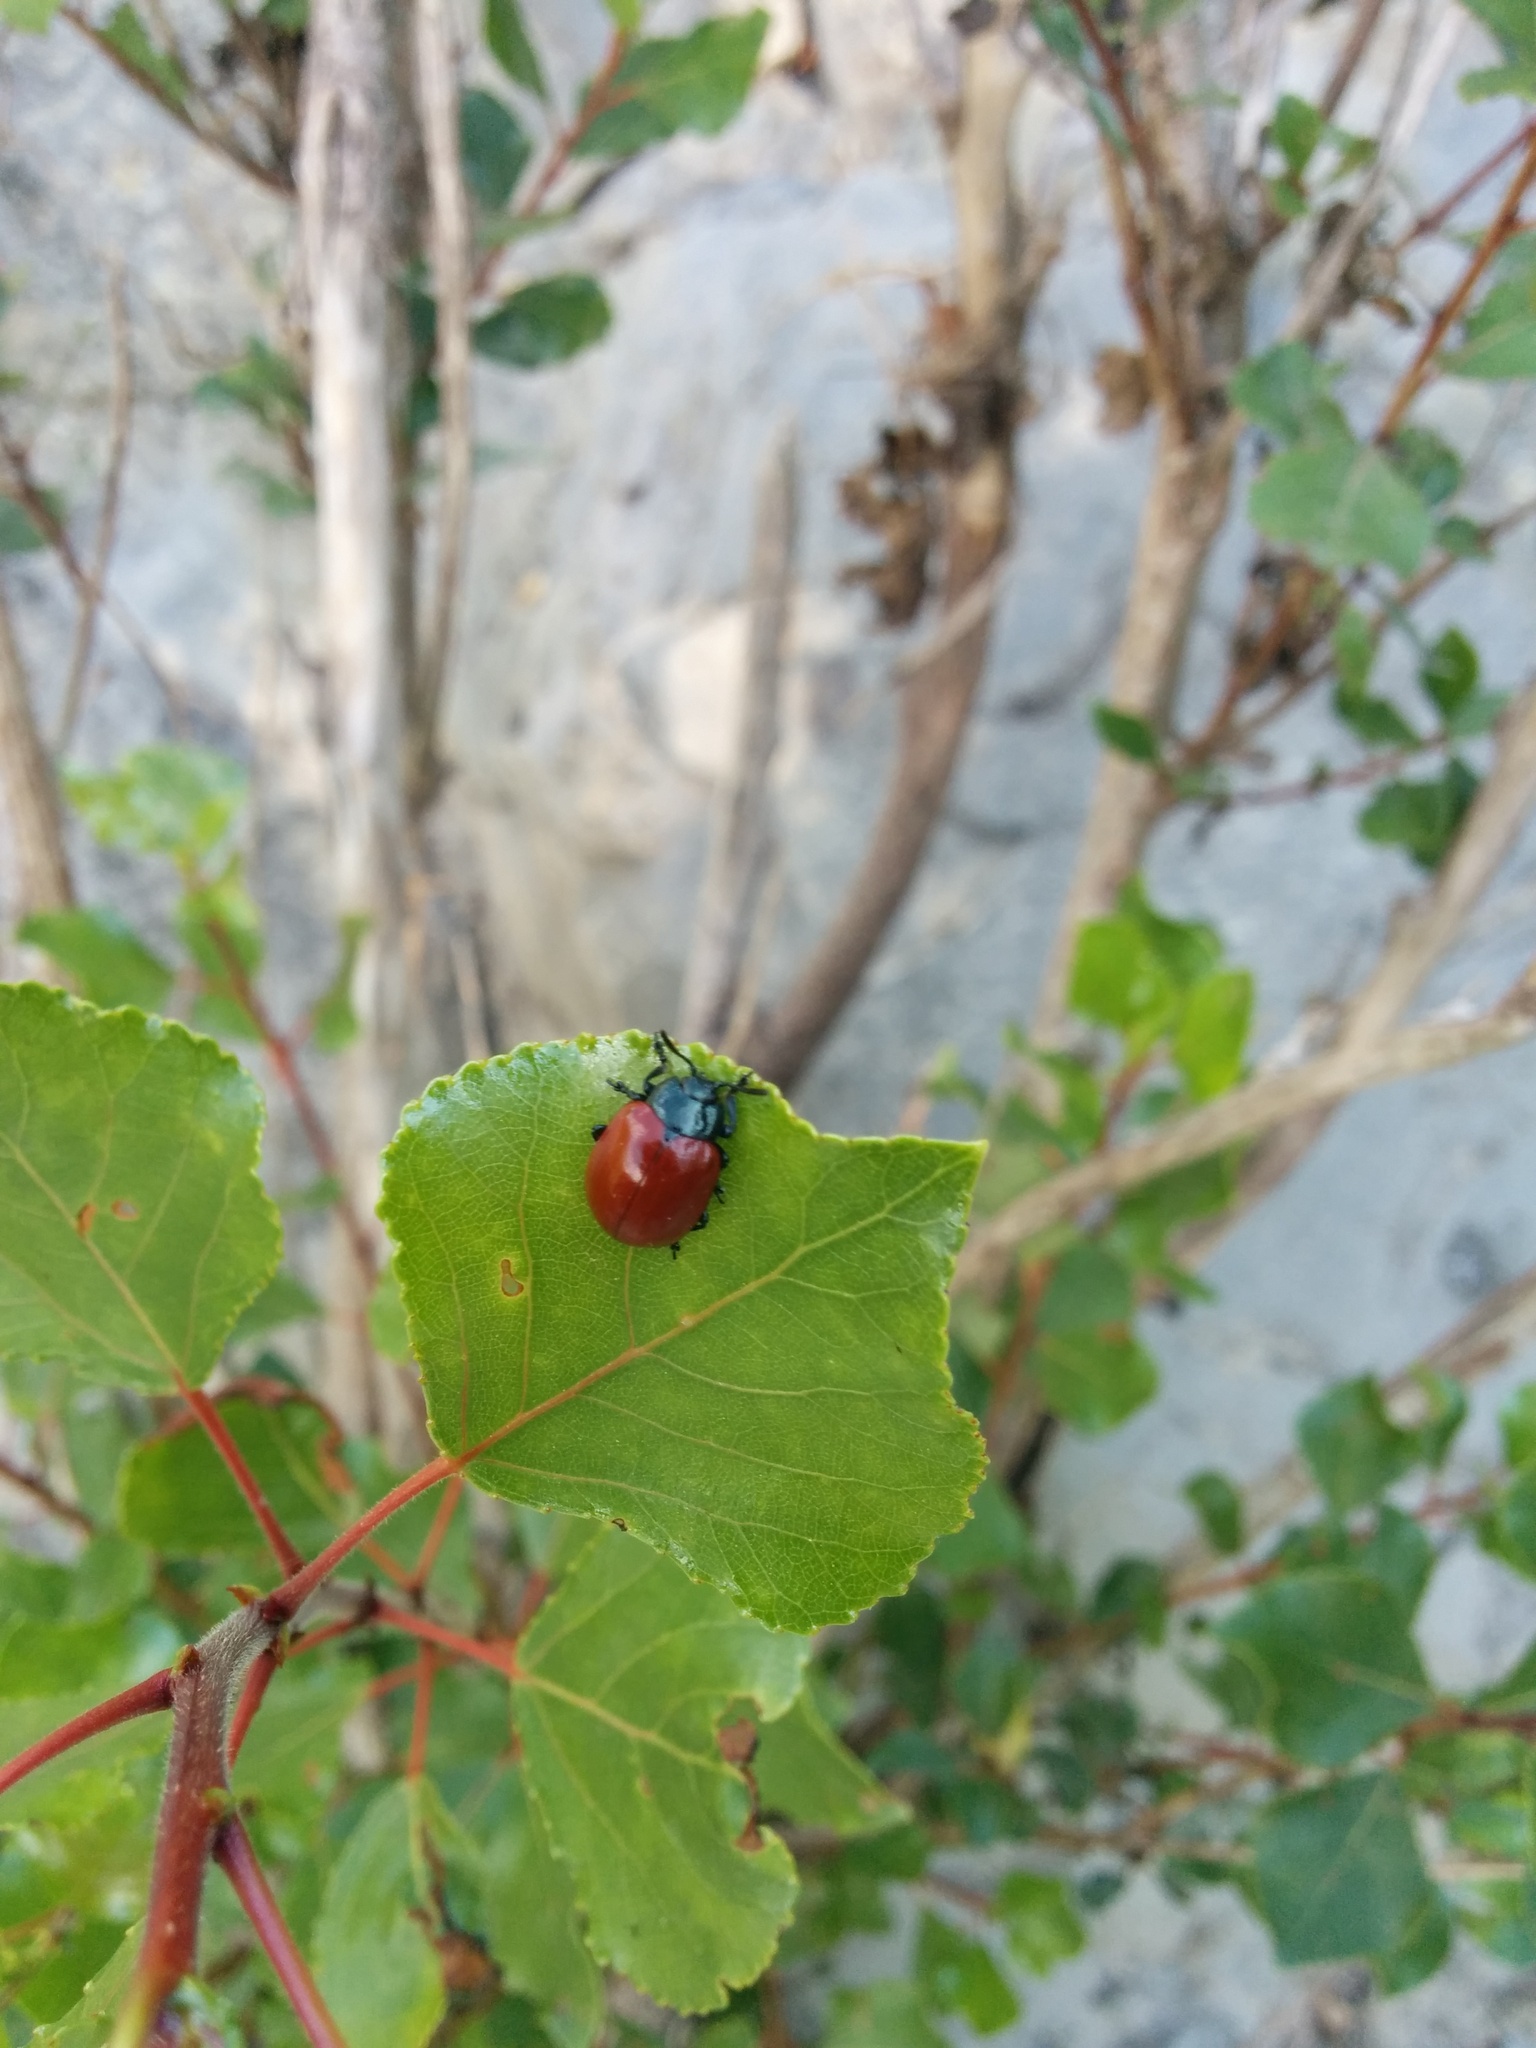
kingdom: Animalia
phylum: Arthropoda
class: Insecta
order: Coleoptera
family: Chrysomelidae
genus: Chrysomela
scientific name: Chrysomela populi
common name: Red poplar leaf beetle
